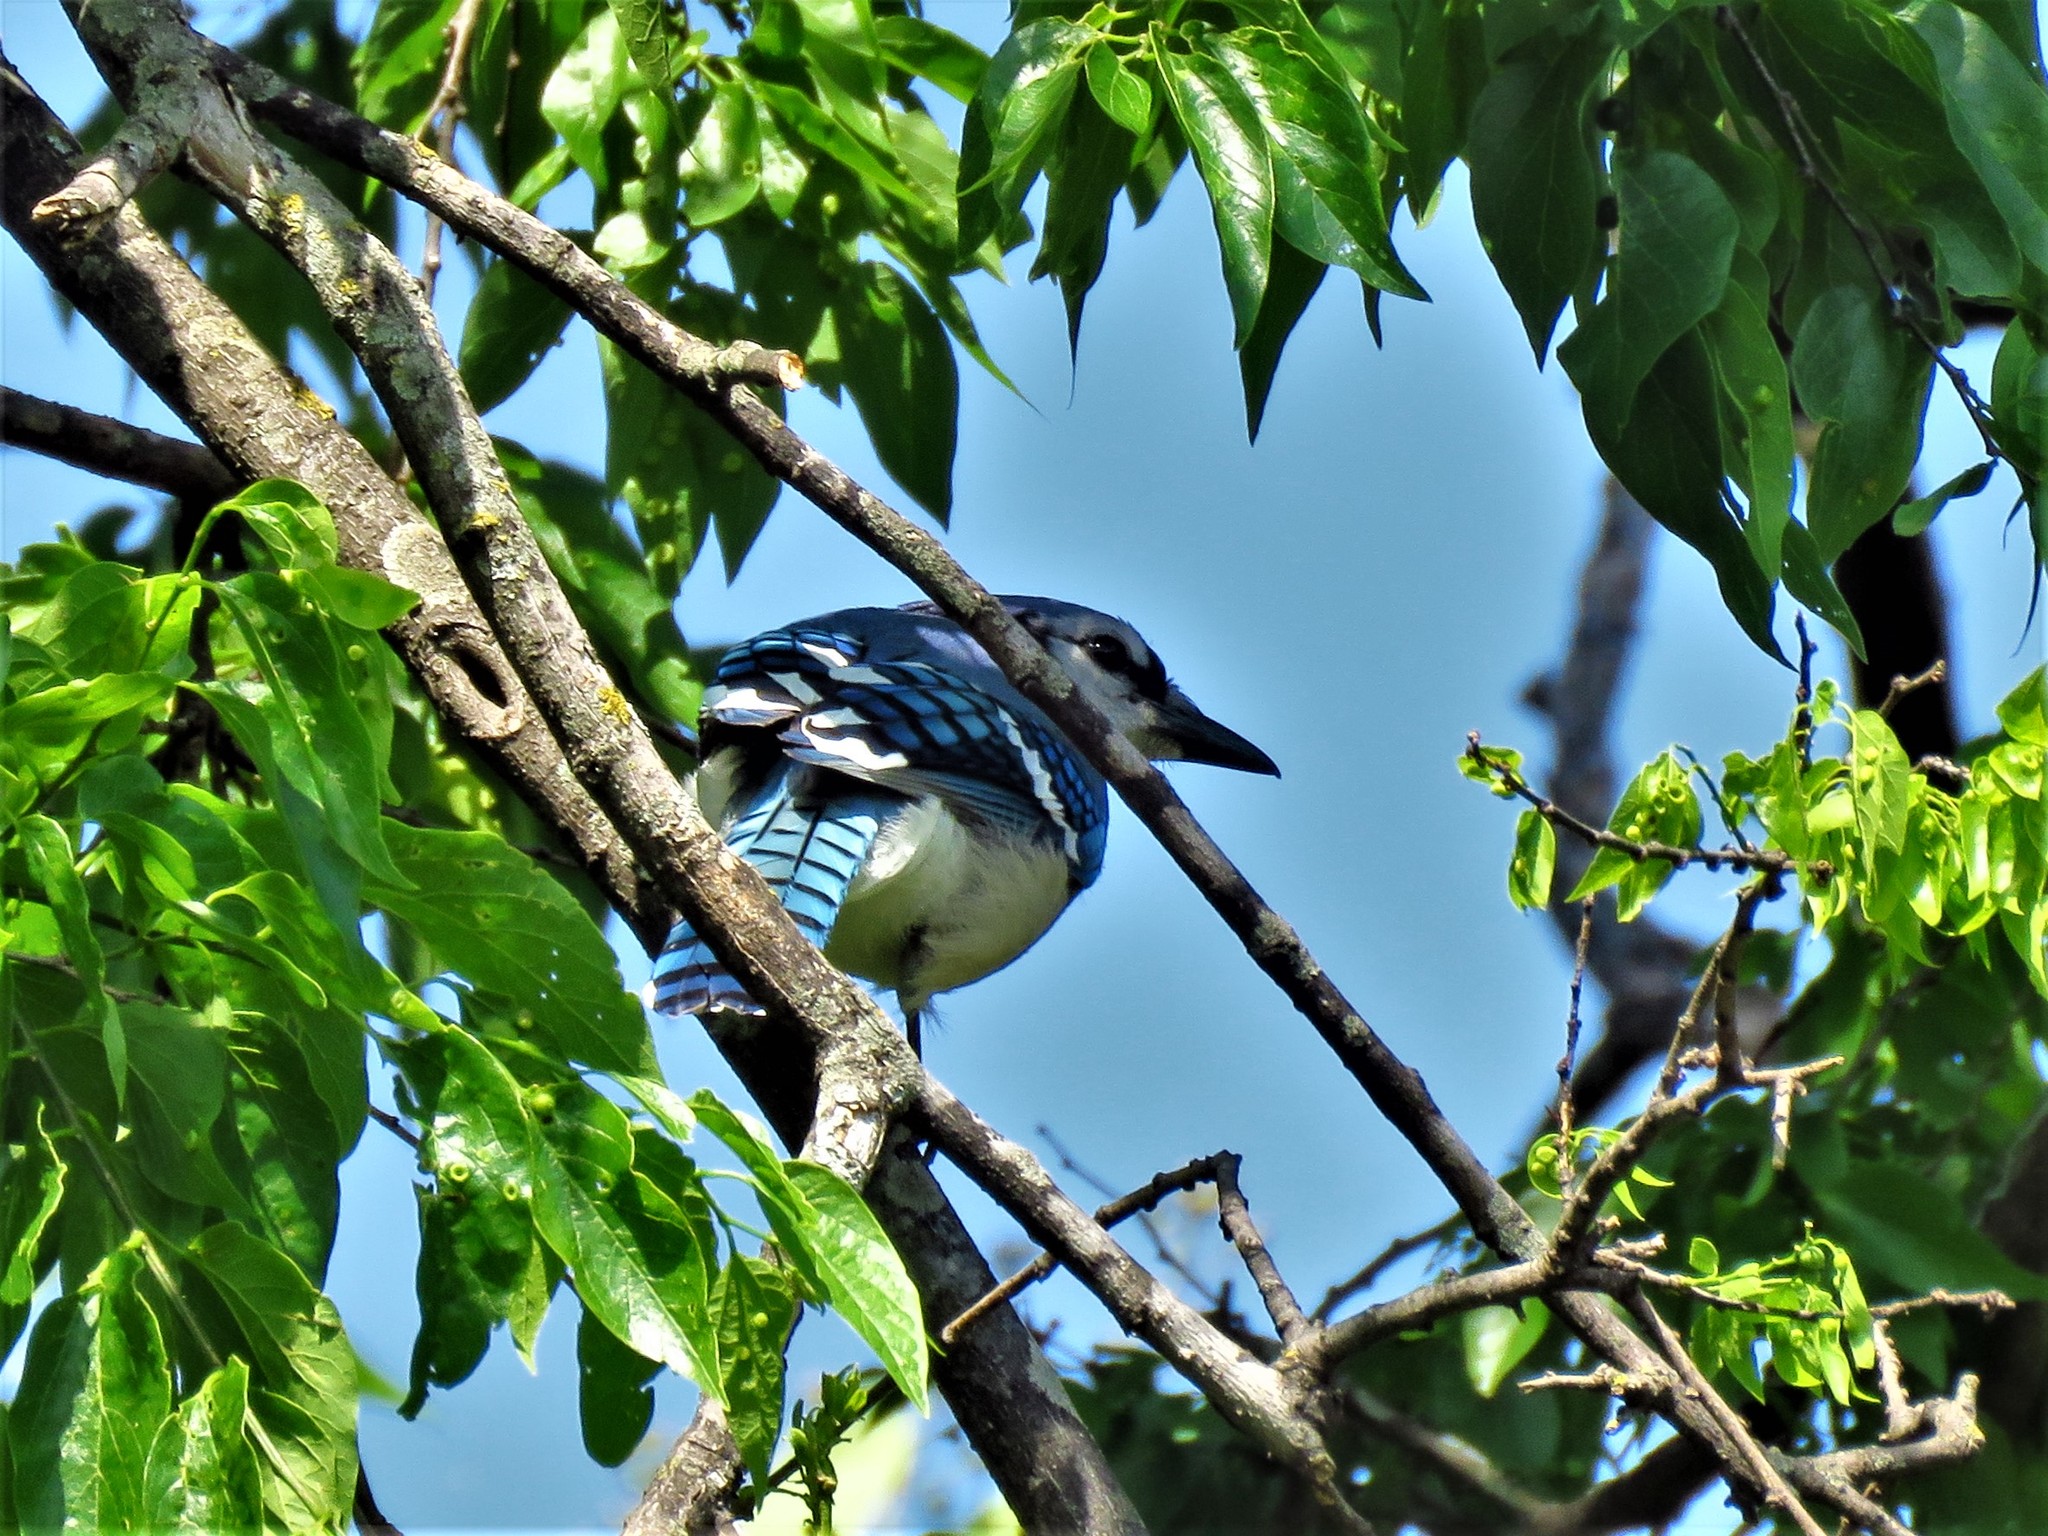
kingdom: Animalia
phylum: Chordata
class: Aves
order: Passeriformes
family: Corvidae
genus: Cyanocitta
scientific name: Cyanocitta cristata
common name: Blue jay
